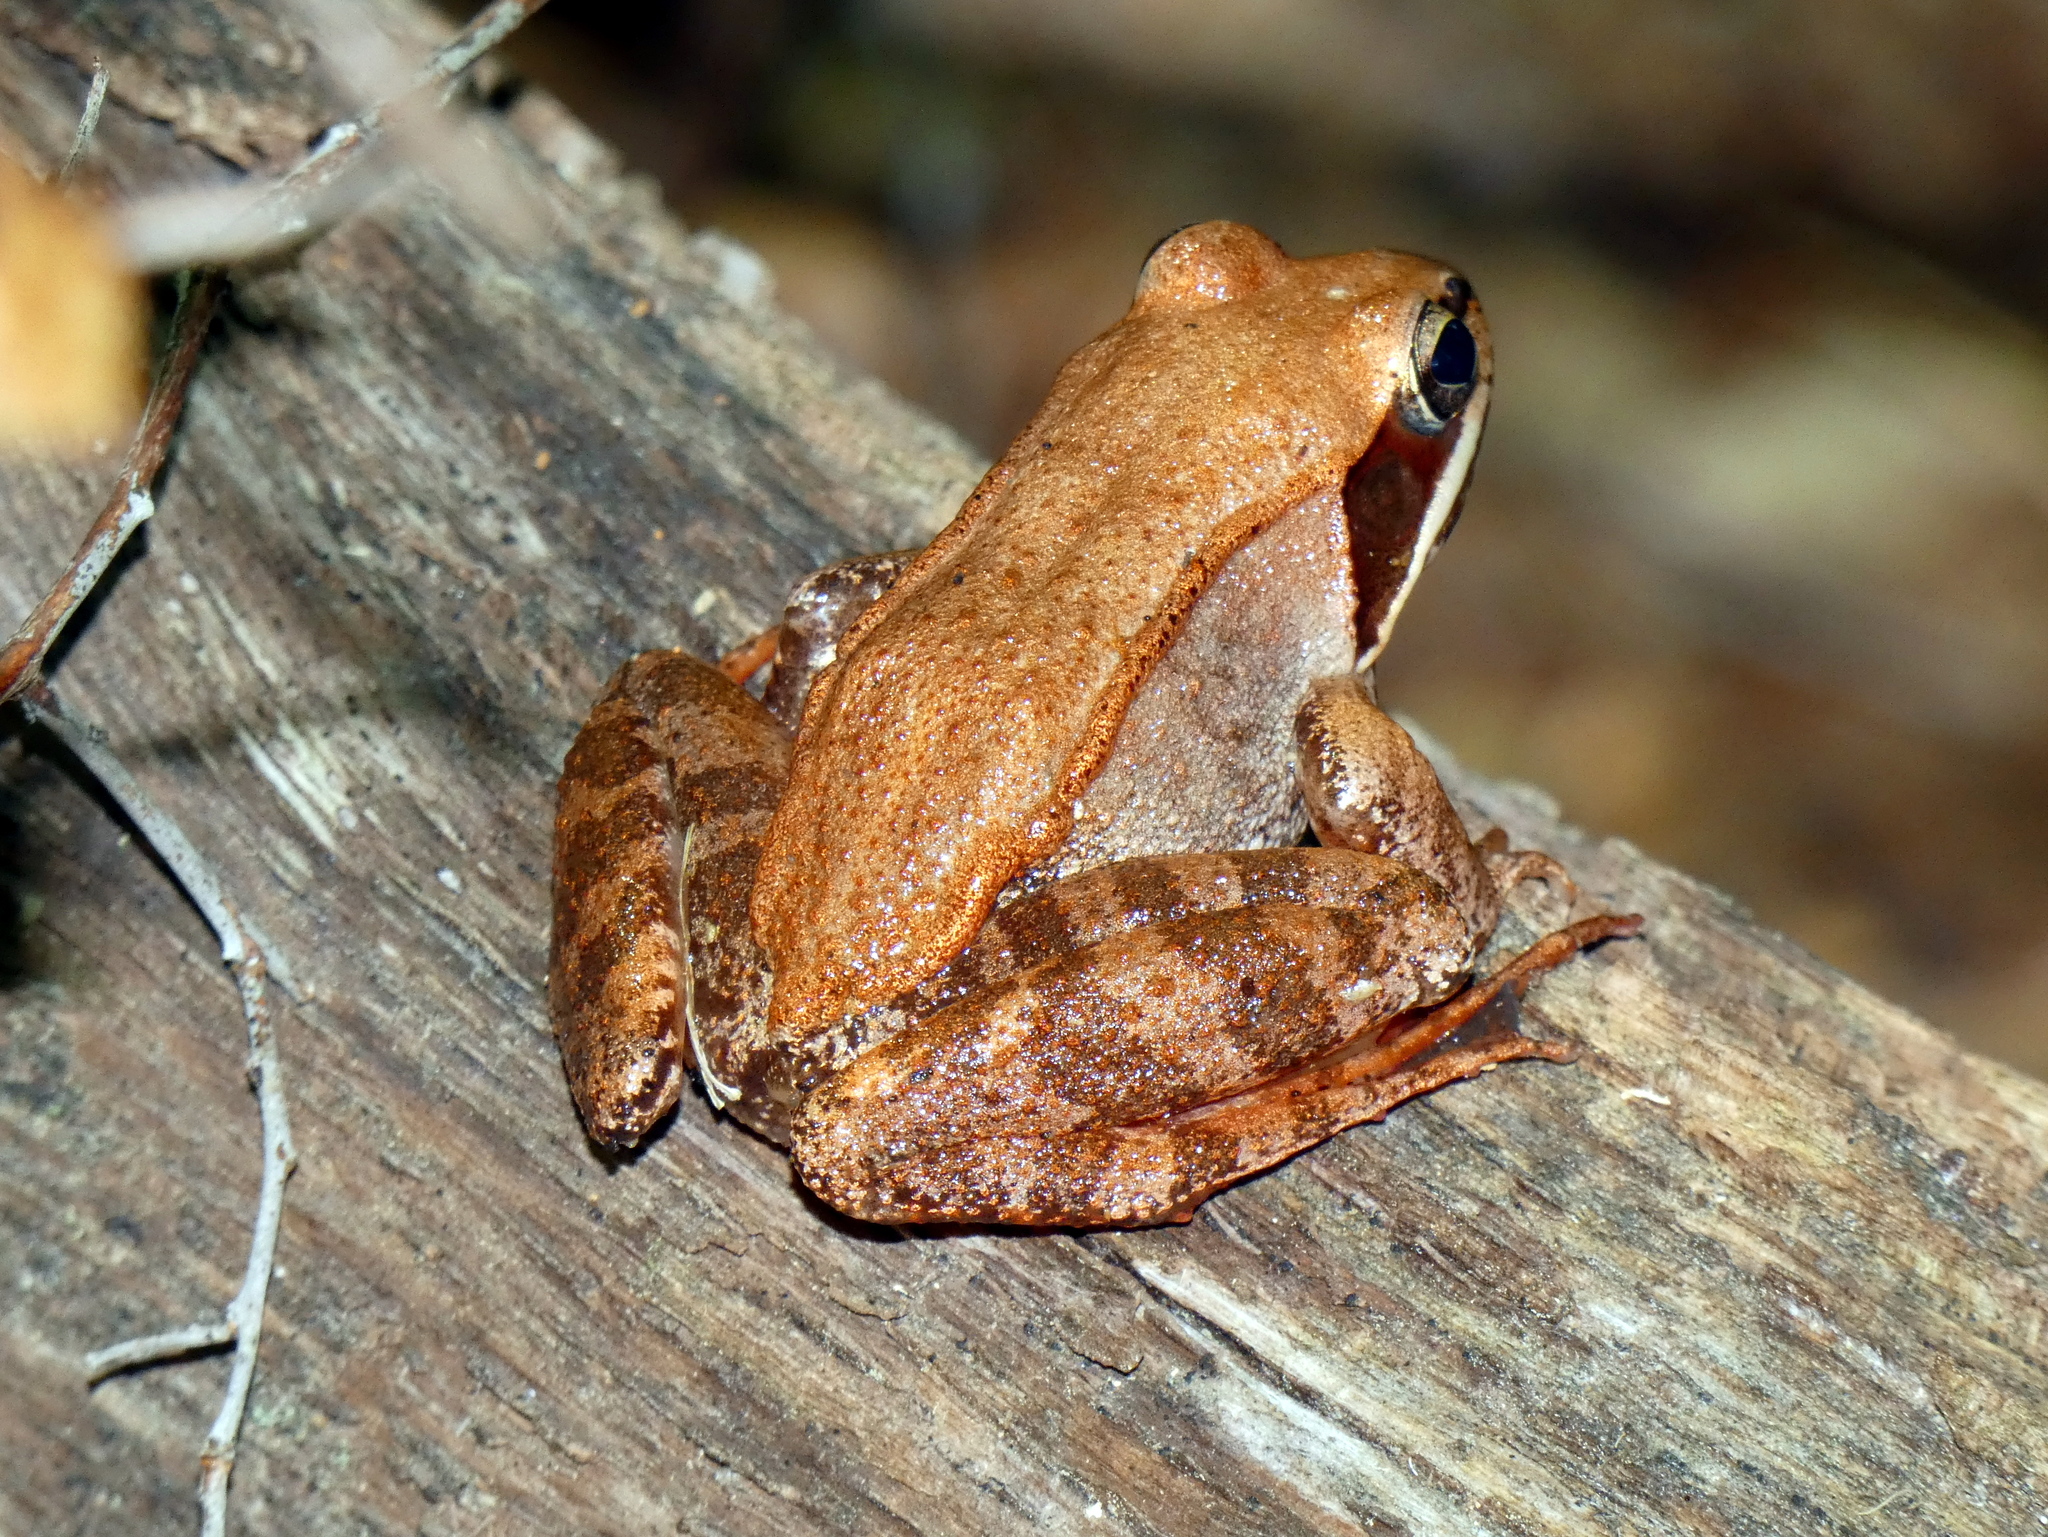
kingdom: Animalia
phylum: Chordata
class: Amphibia
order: Anura
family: Ranidae
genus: Lithobates
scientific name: Lithobates sylvaticus
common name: Wood frog
